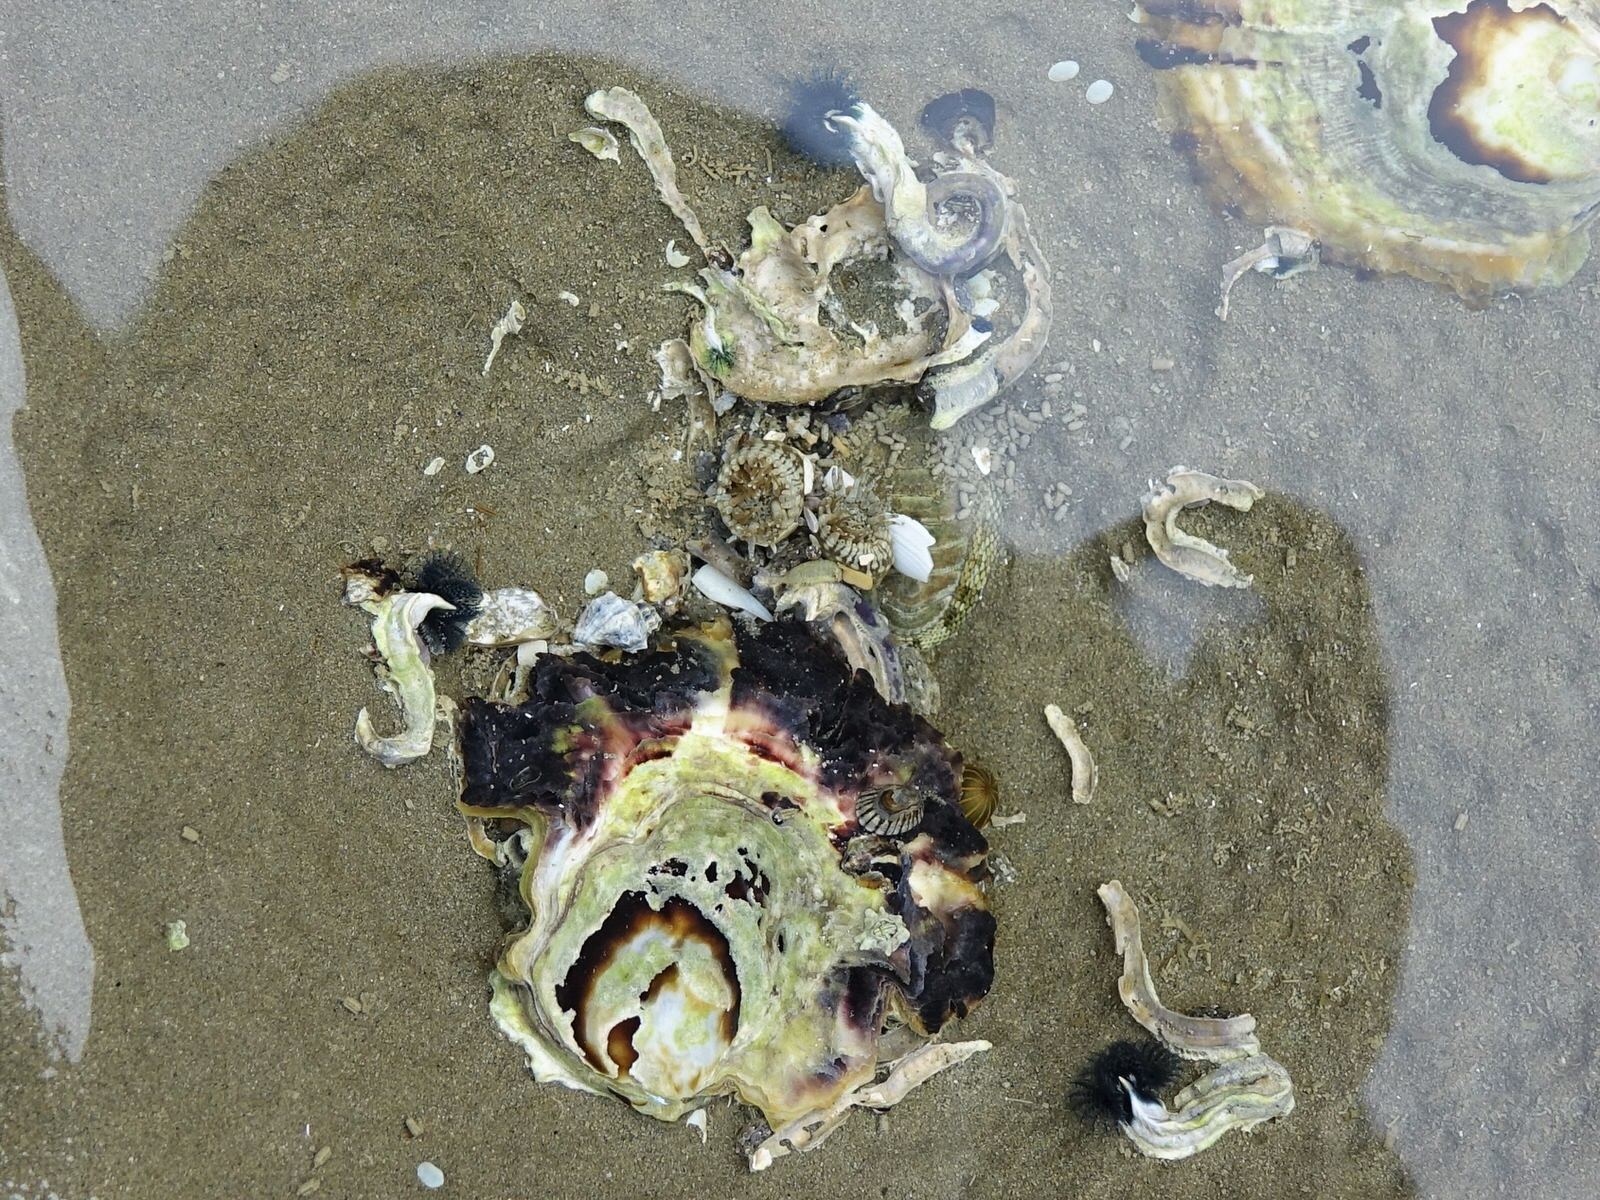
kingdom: Animalia
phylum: Cnidaria
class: Anthozoa
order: Actiniaria
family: Diadumenidae
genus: Diadumene
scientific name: Diadumene lineata
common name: Orange-striped anemone
